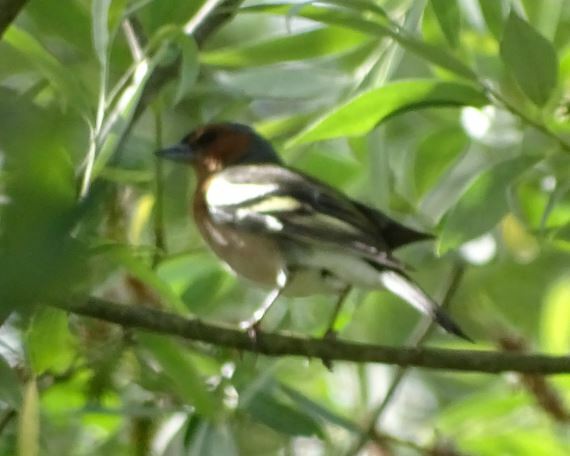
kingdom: Animalia
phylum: Chordata
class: Aves
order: Passeriformes
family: Fringillidae
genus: Fringilla
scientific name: Fringilla coelebs
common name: Common chaffinch
